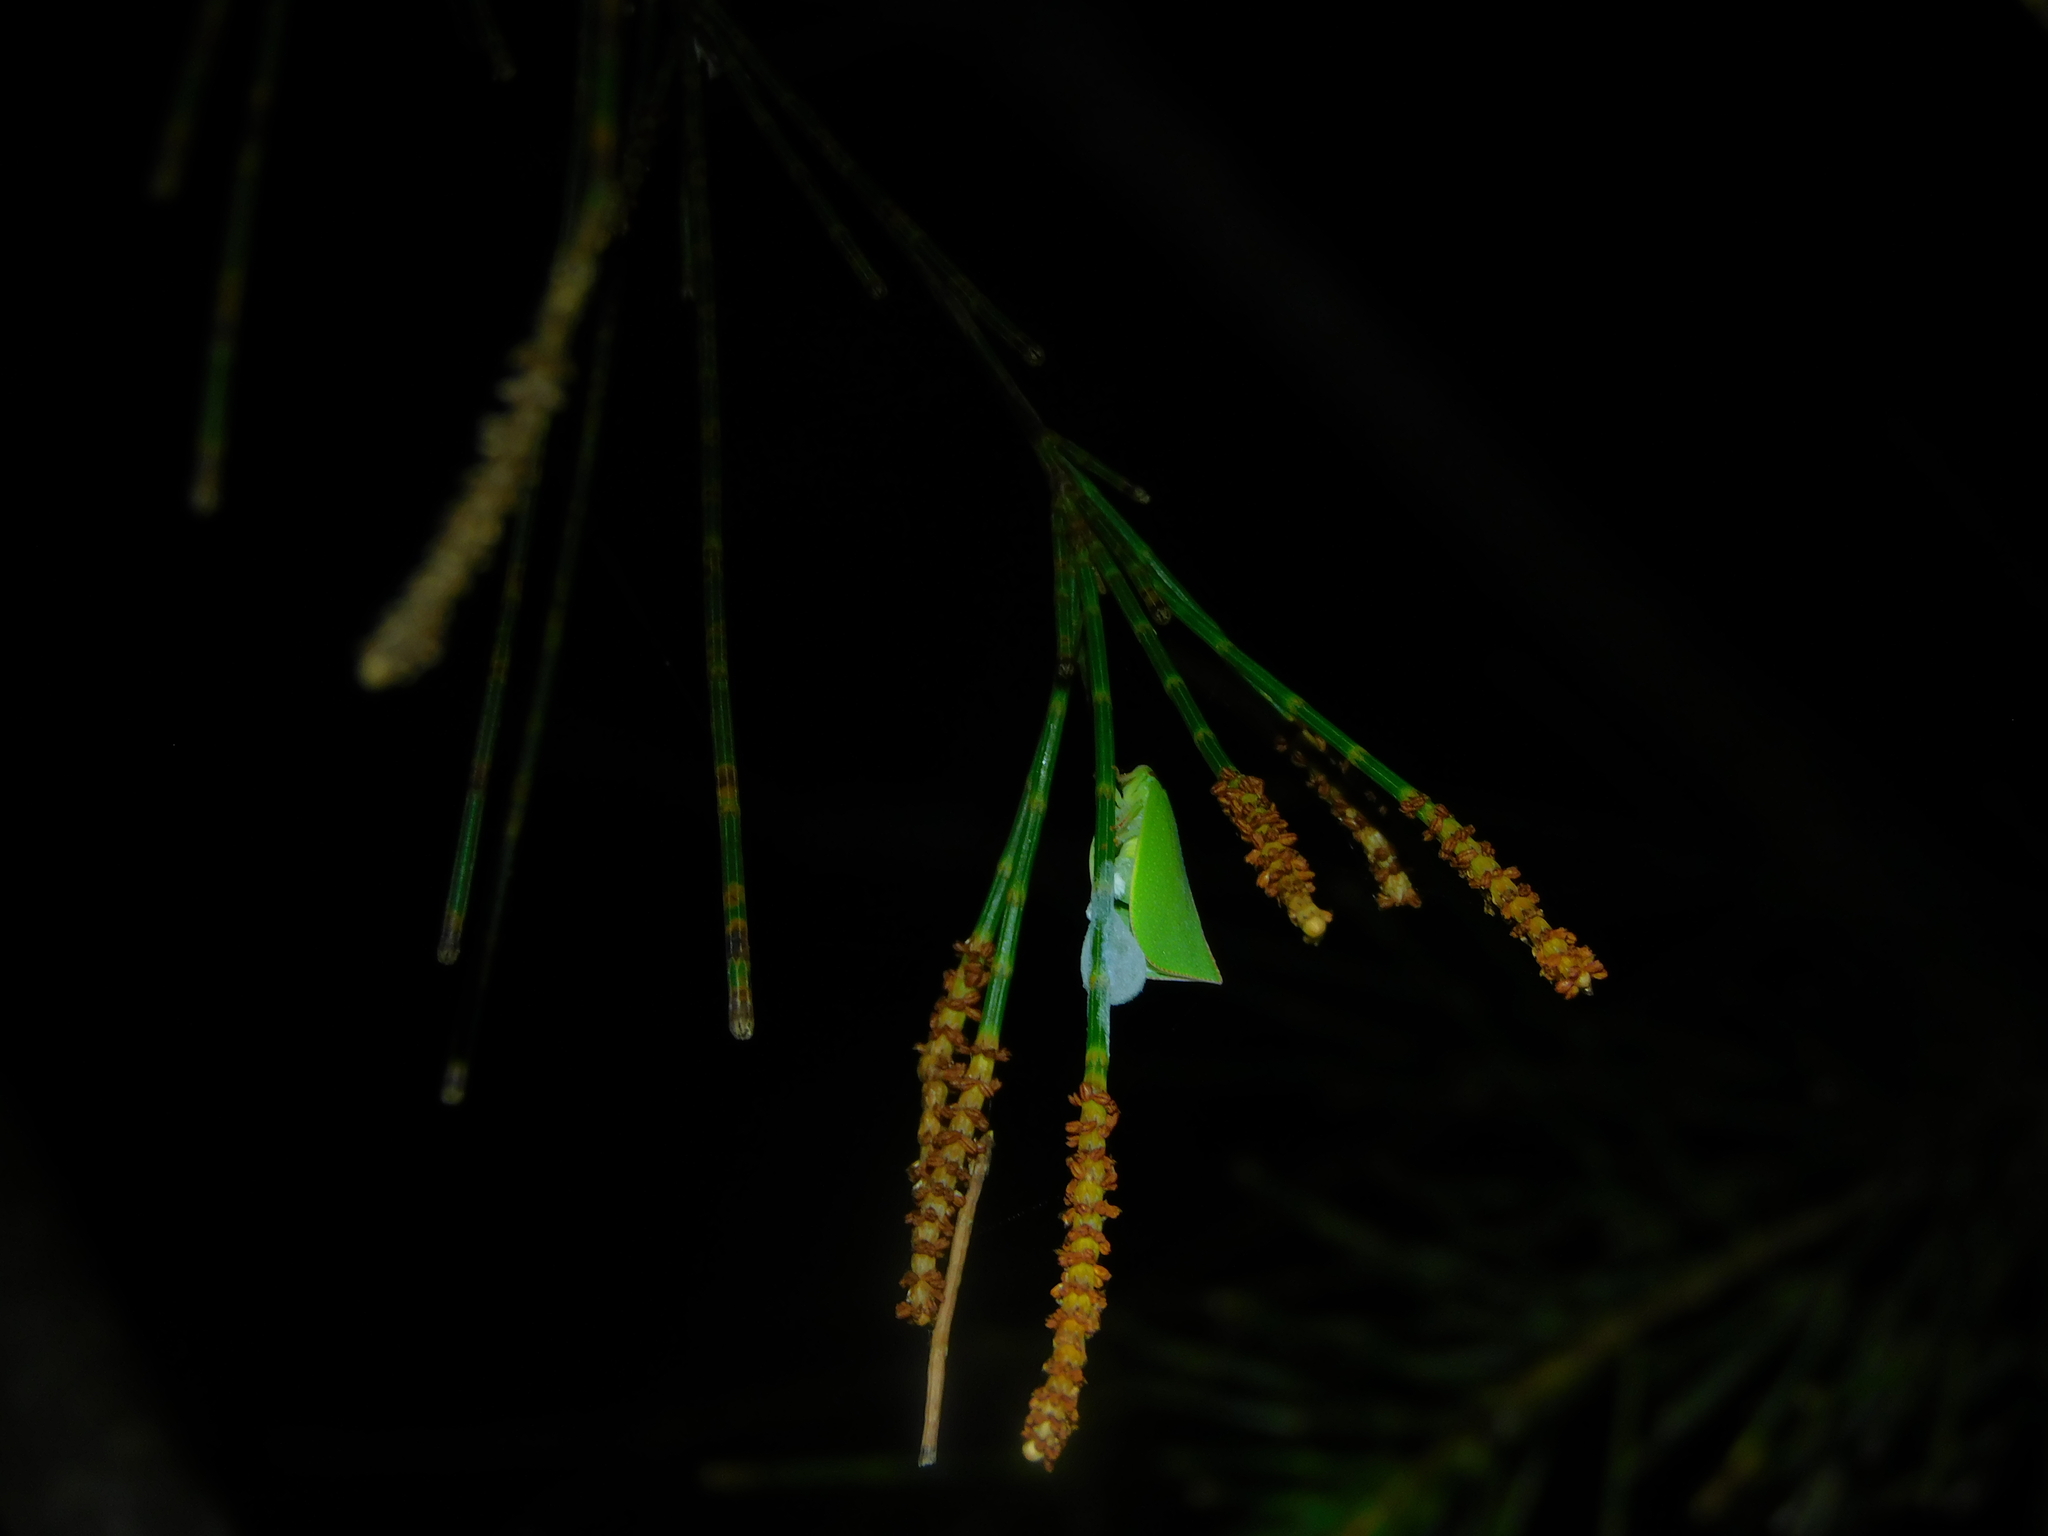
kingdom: Animalia
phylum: Arthropoda
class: Insecta
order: Hemiptera
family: Flatidae
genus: Siphanta
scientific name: Siphanta
